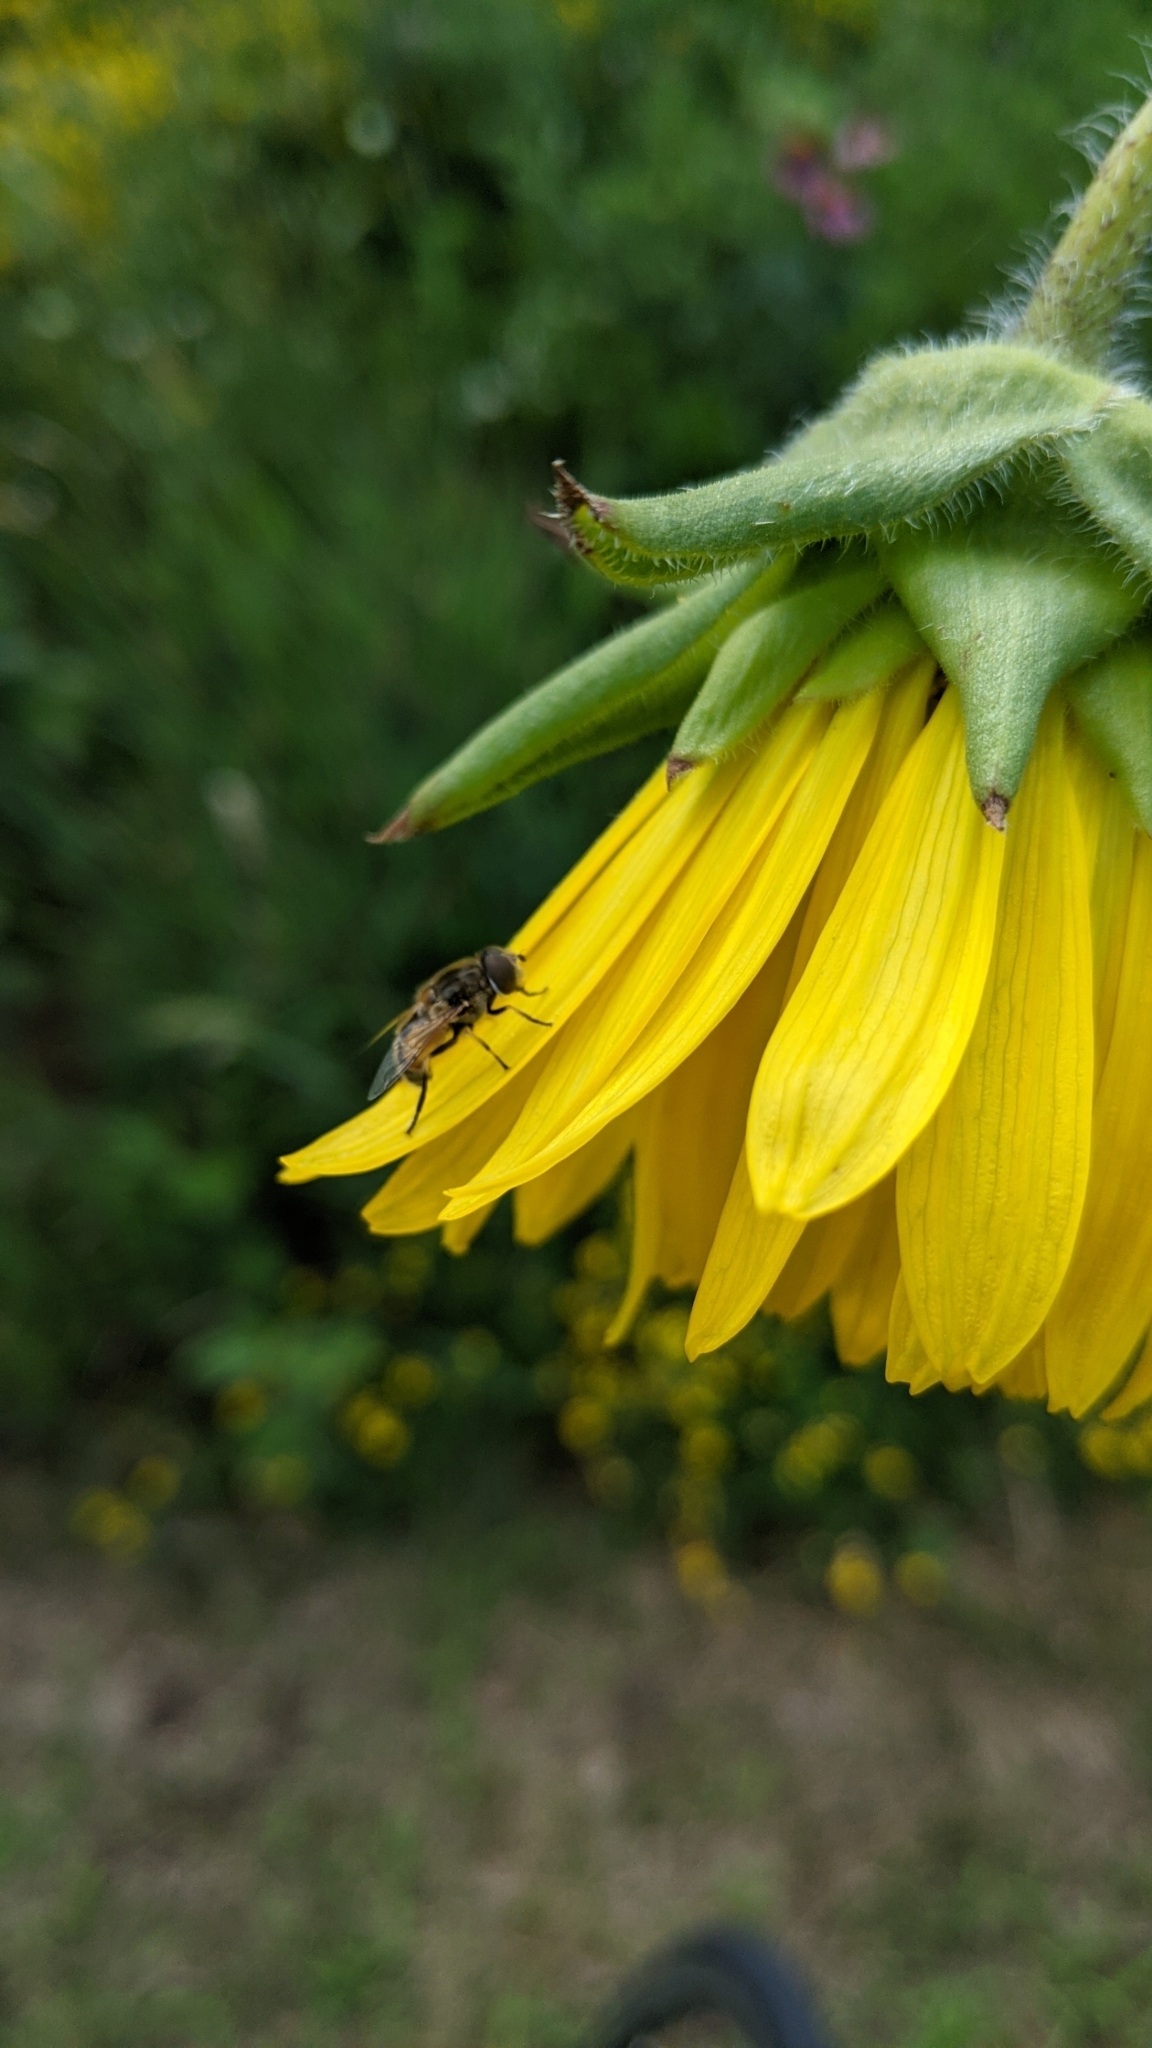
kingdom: Animalia
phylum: Arthropoda
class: Insecta
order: Diptera
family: Syrphidae
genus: Eristalis
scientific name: Eristalis arbustorum
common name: Hover fly
